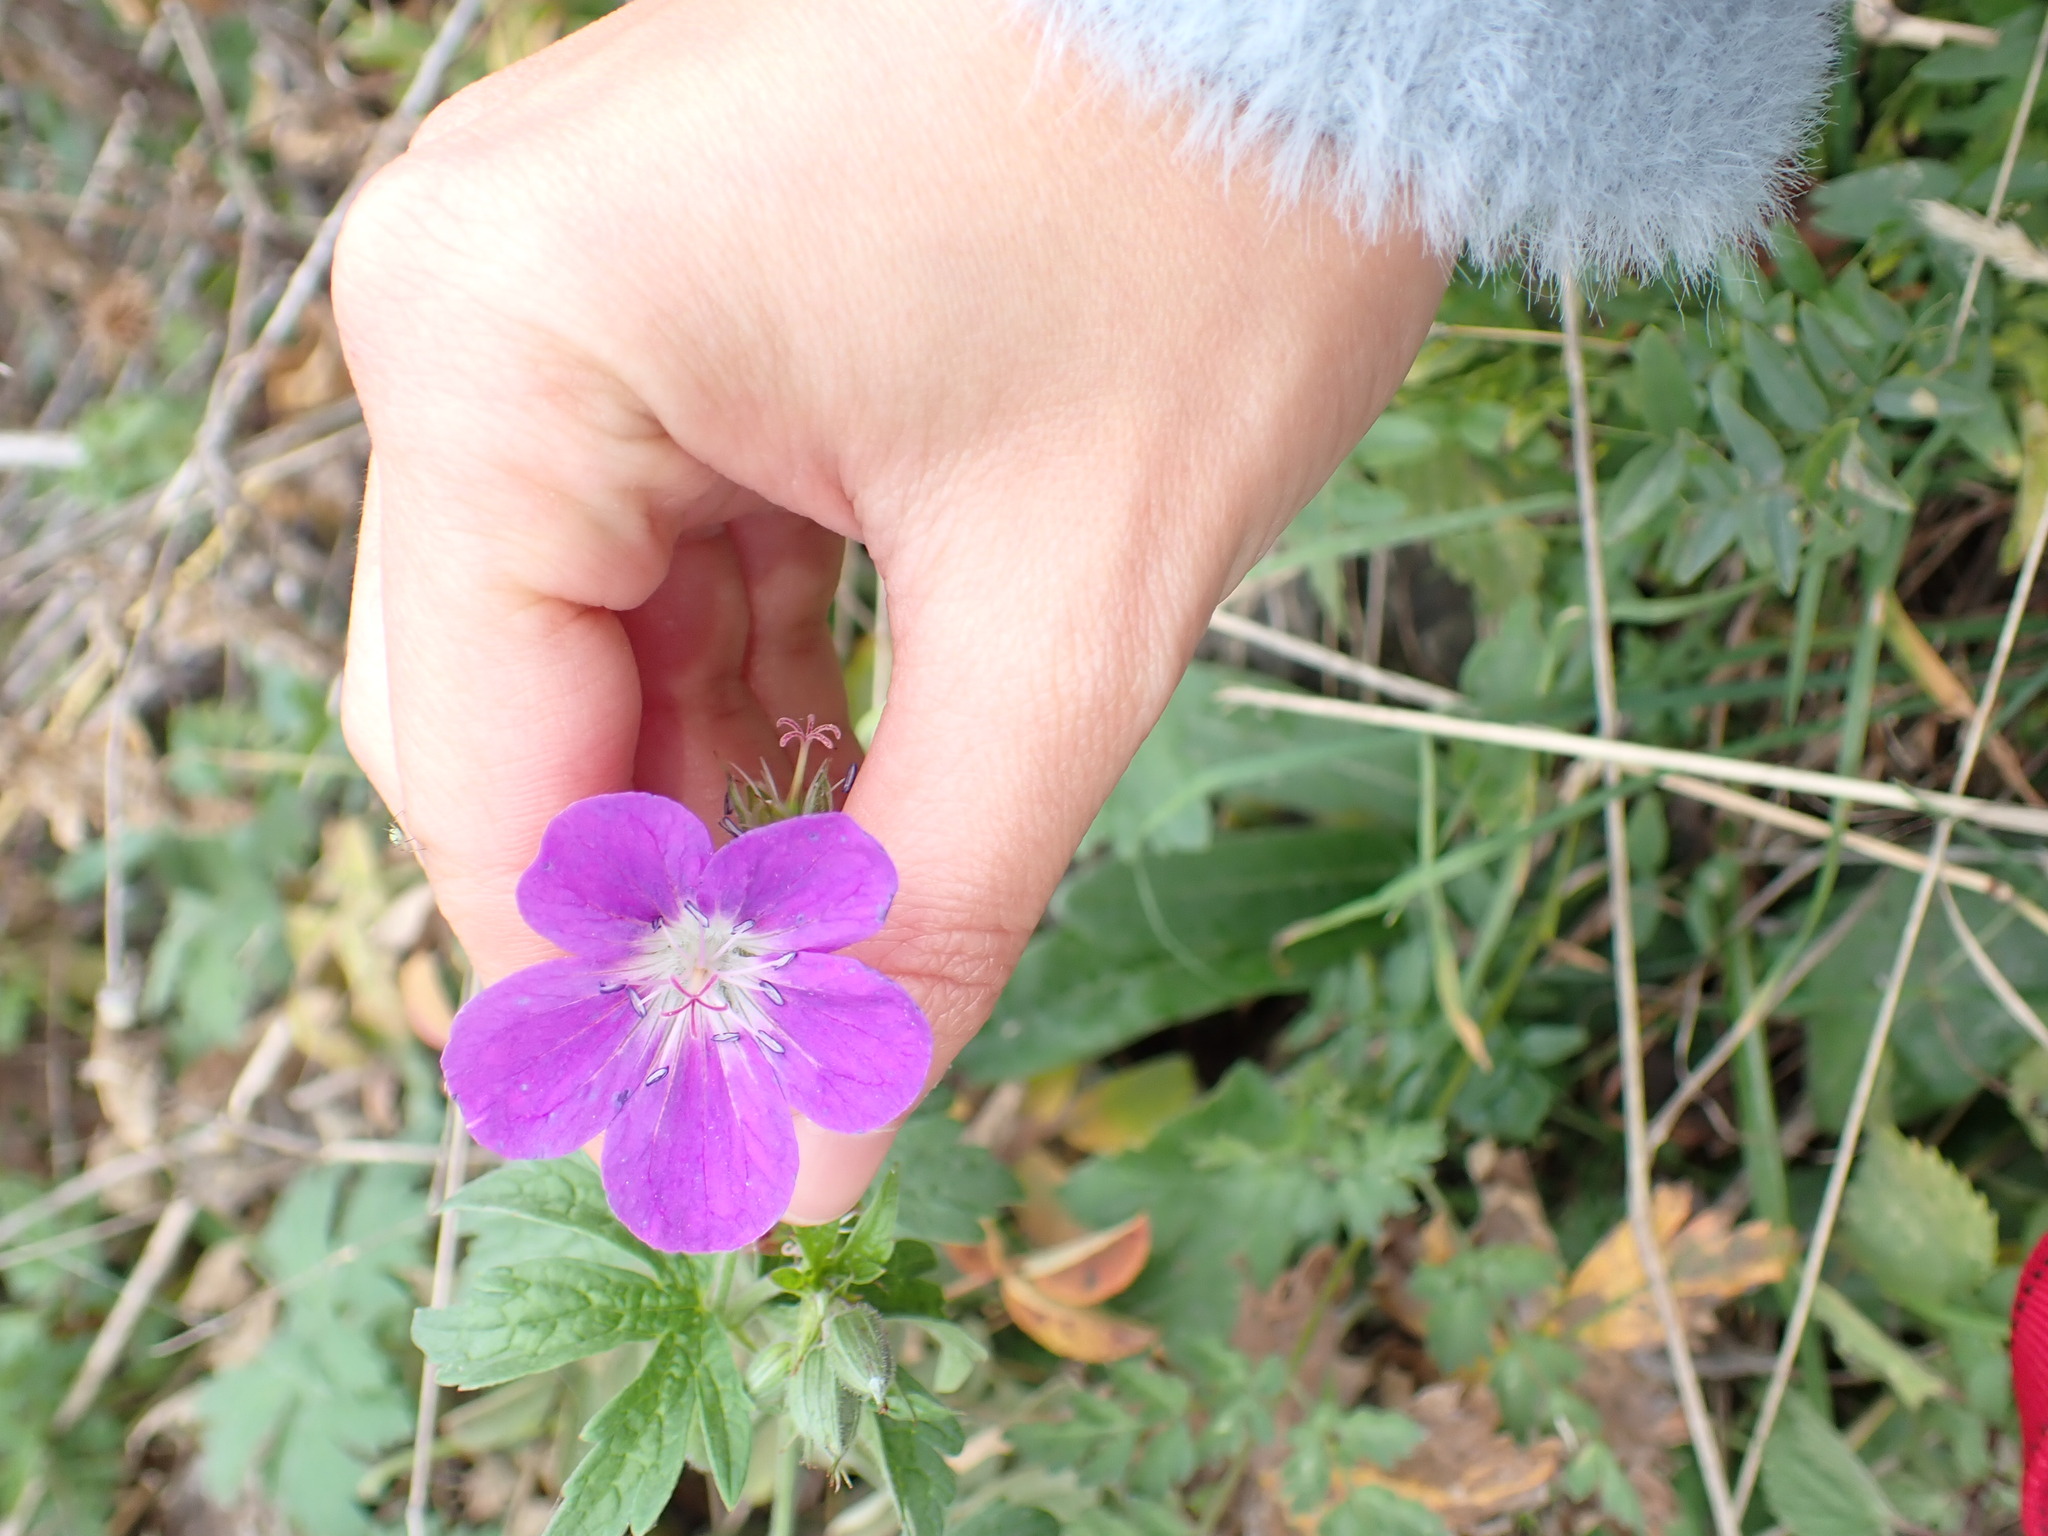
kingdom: Plantae
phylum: Tracheophyta
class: Magnoliopsida
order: Geraniales
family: Geraniaceae
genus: Geranium
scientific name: Geranium sylvaticum
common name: Wood crane's-bill
